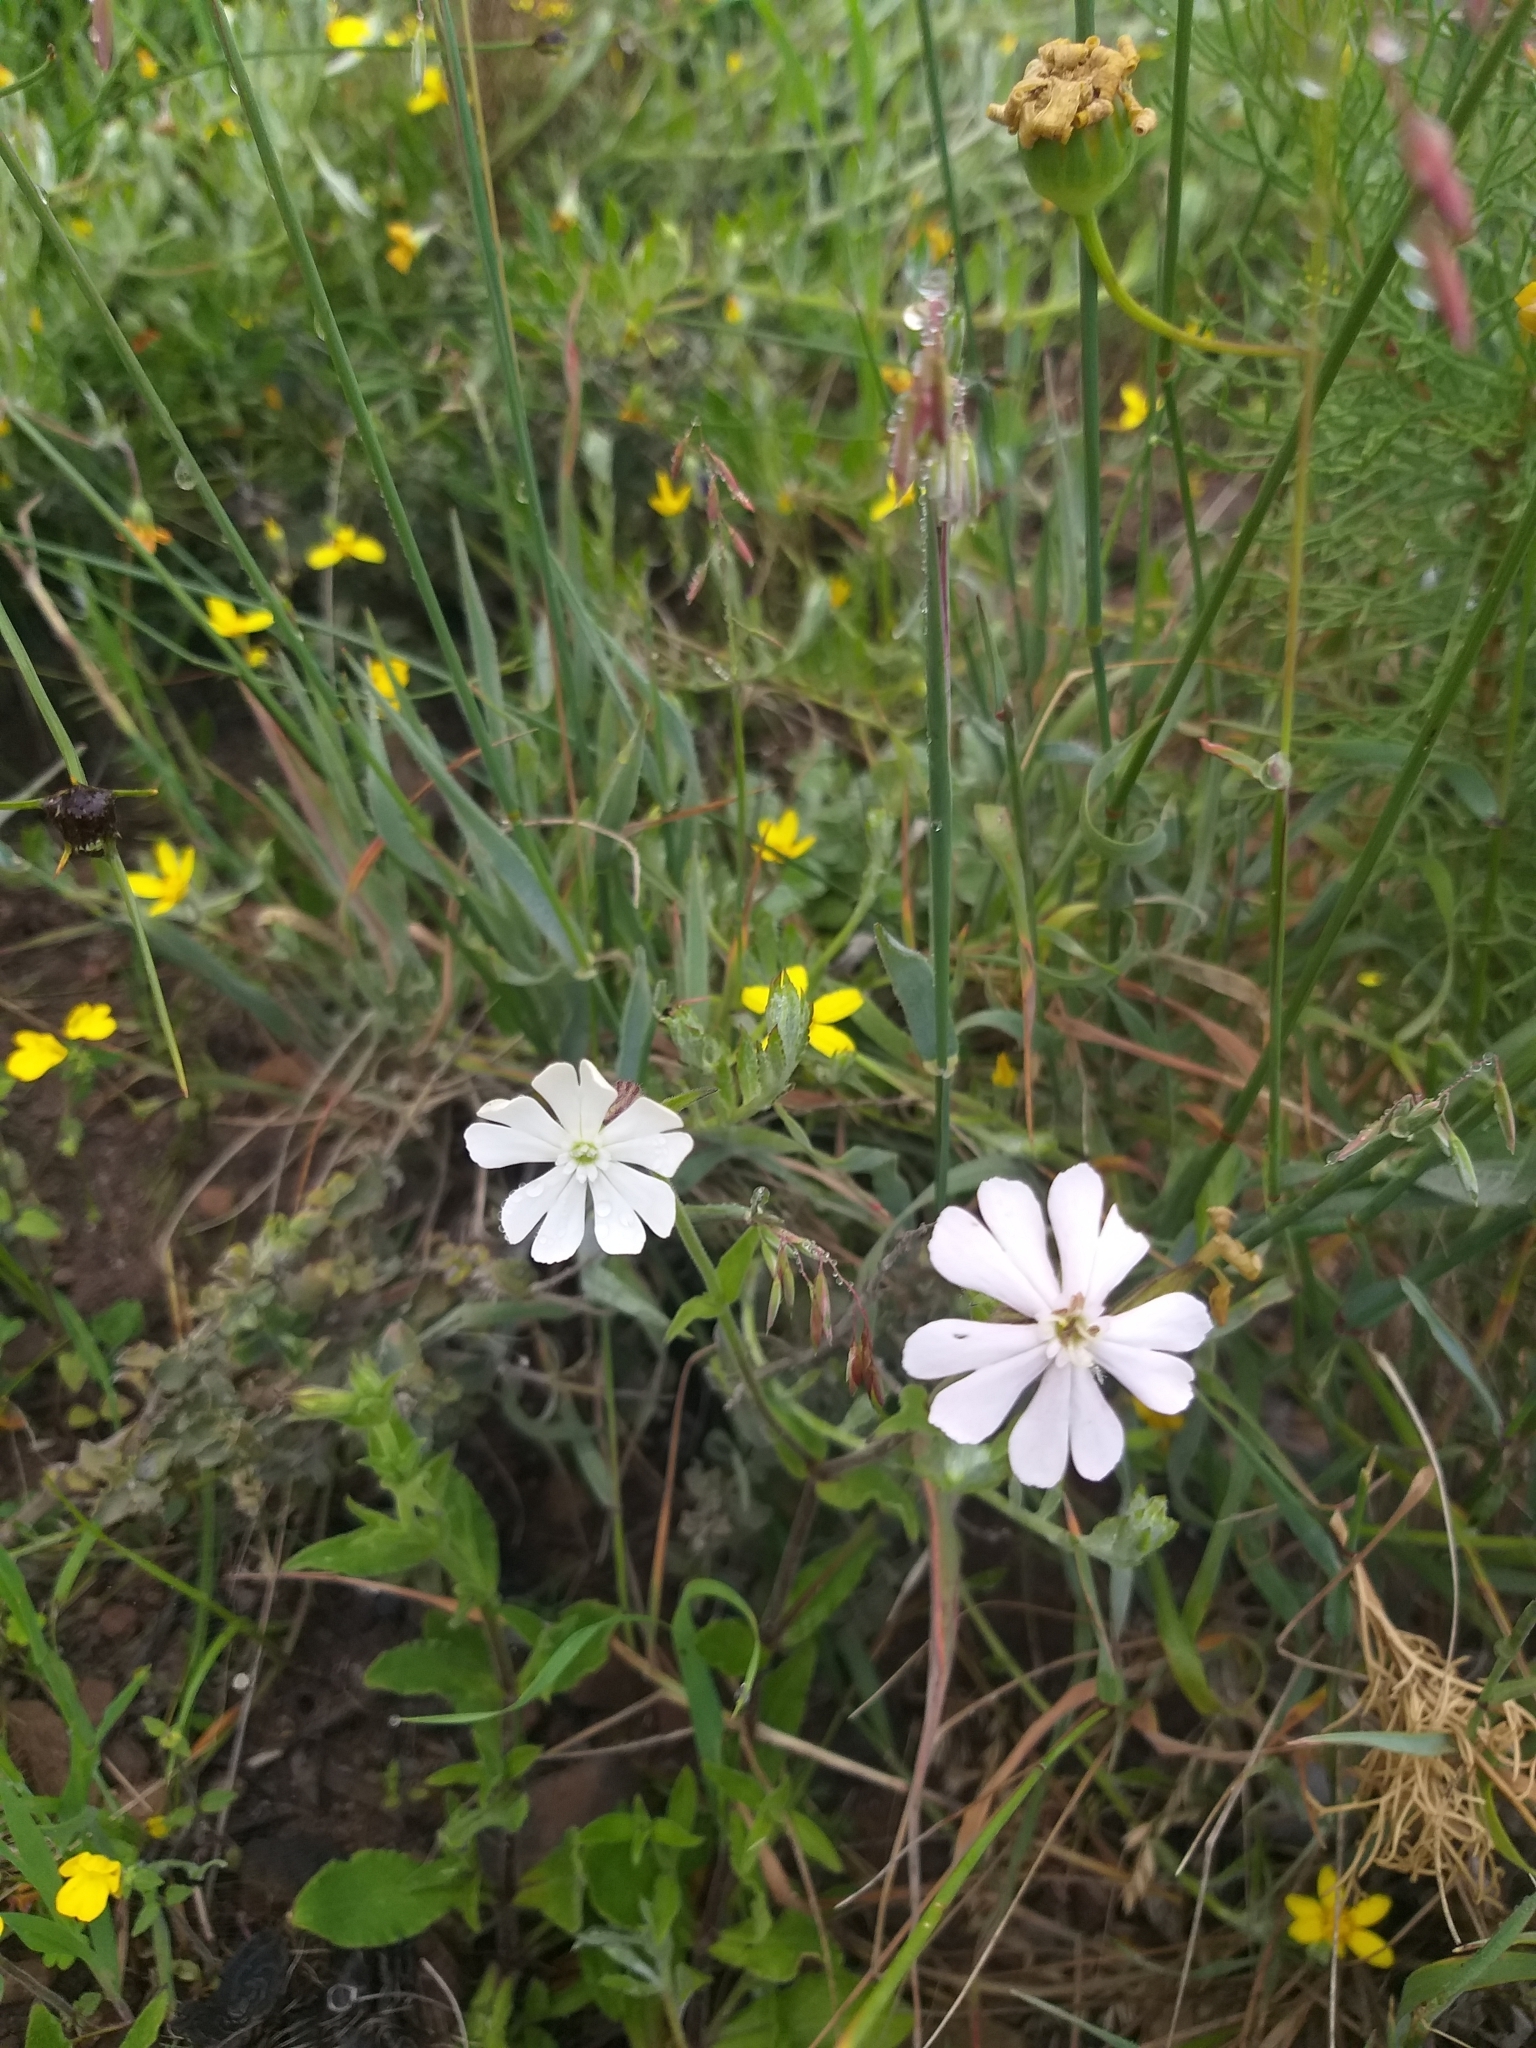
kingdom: Plantae
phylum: Tracheophyta
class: Magnoliopsida
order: Caryophyllales
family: Caryophyllaceae
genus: Silene
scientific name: Silene undulata
